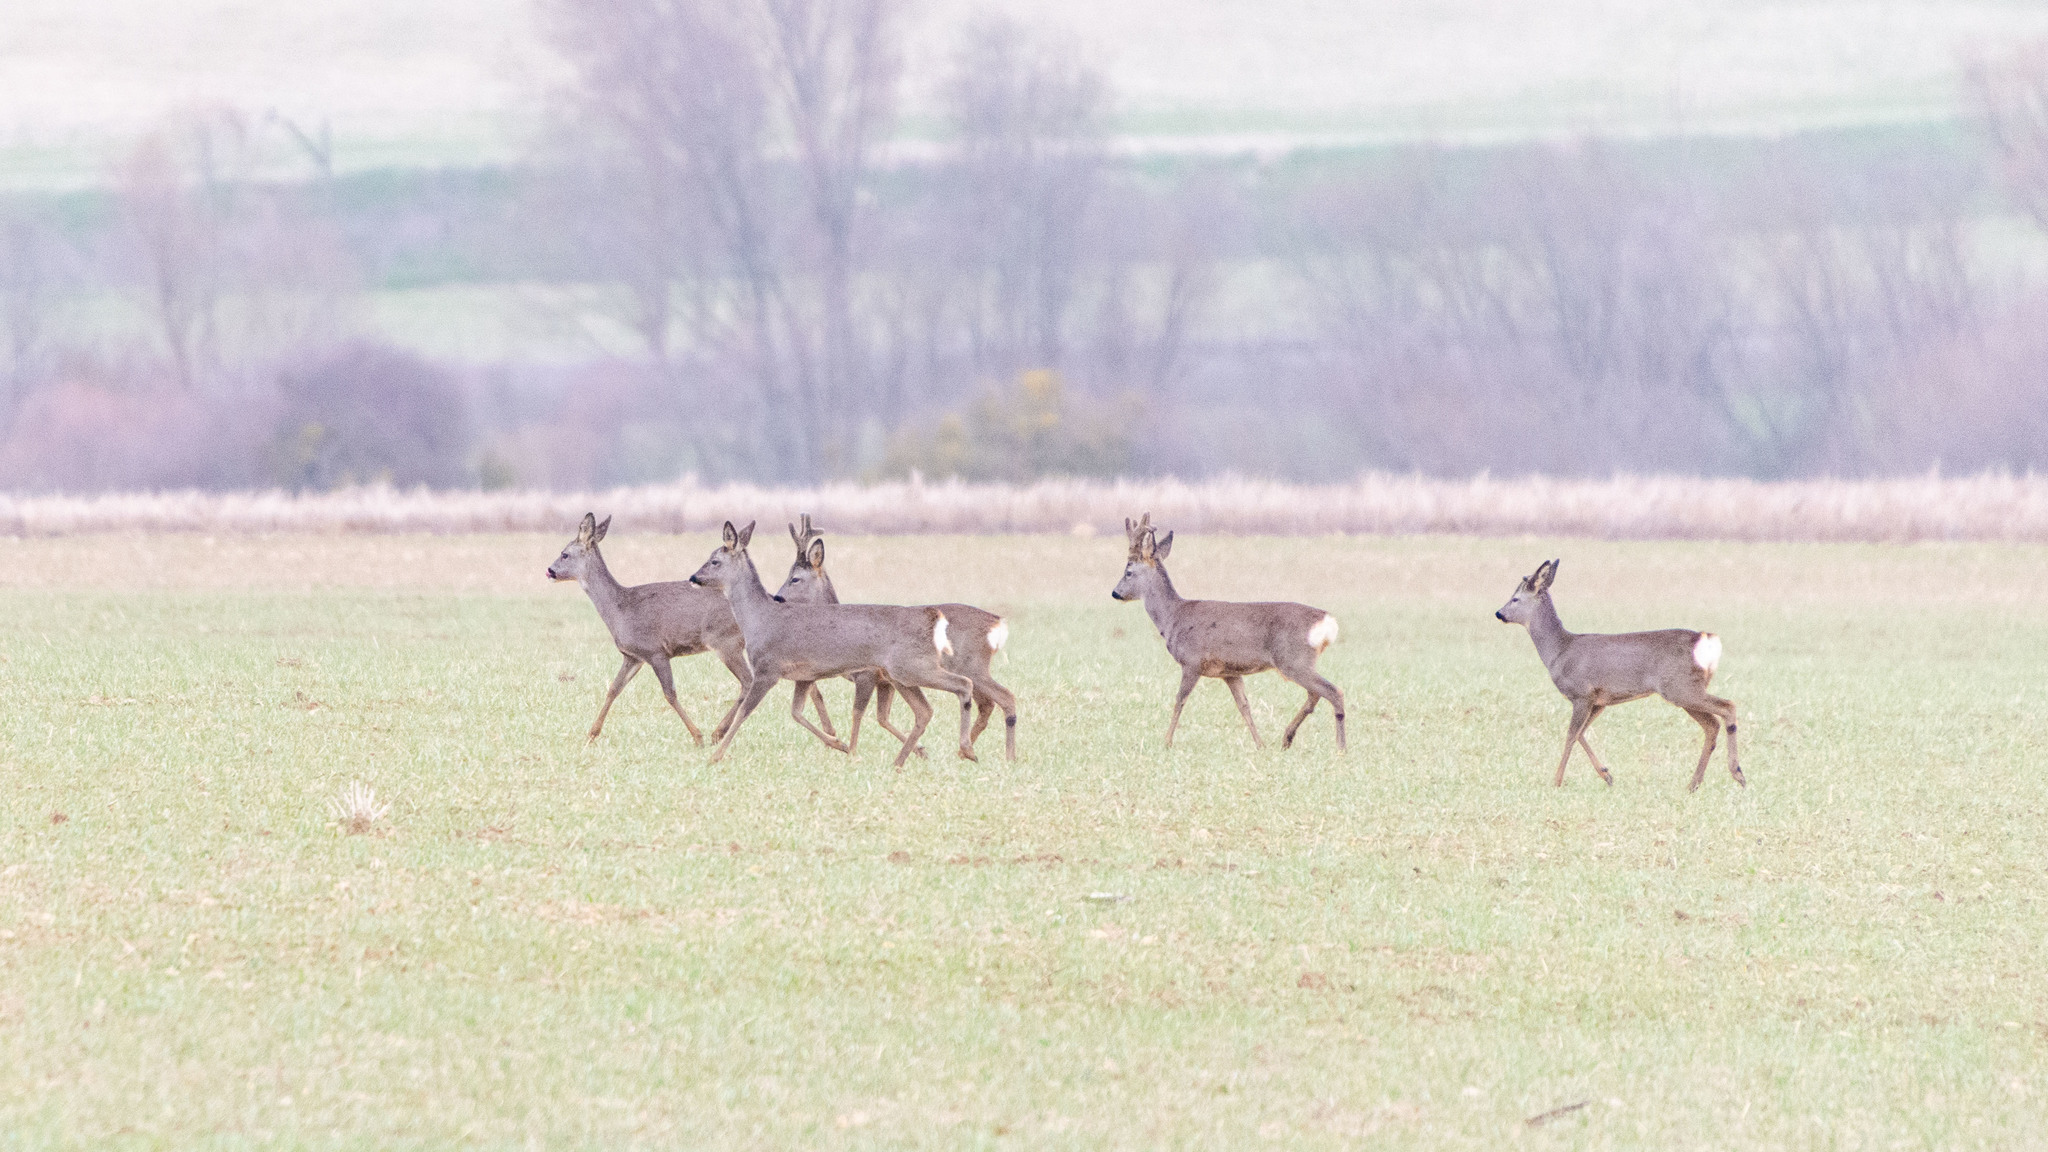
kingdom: Animalia
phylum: Chordata
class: Mammalia
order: Artiodactyla
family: Cervidae
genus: Capreolus
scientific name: Capreolus capreolus
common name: Western roe deer
